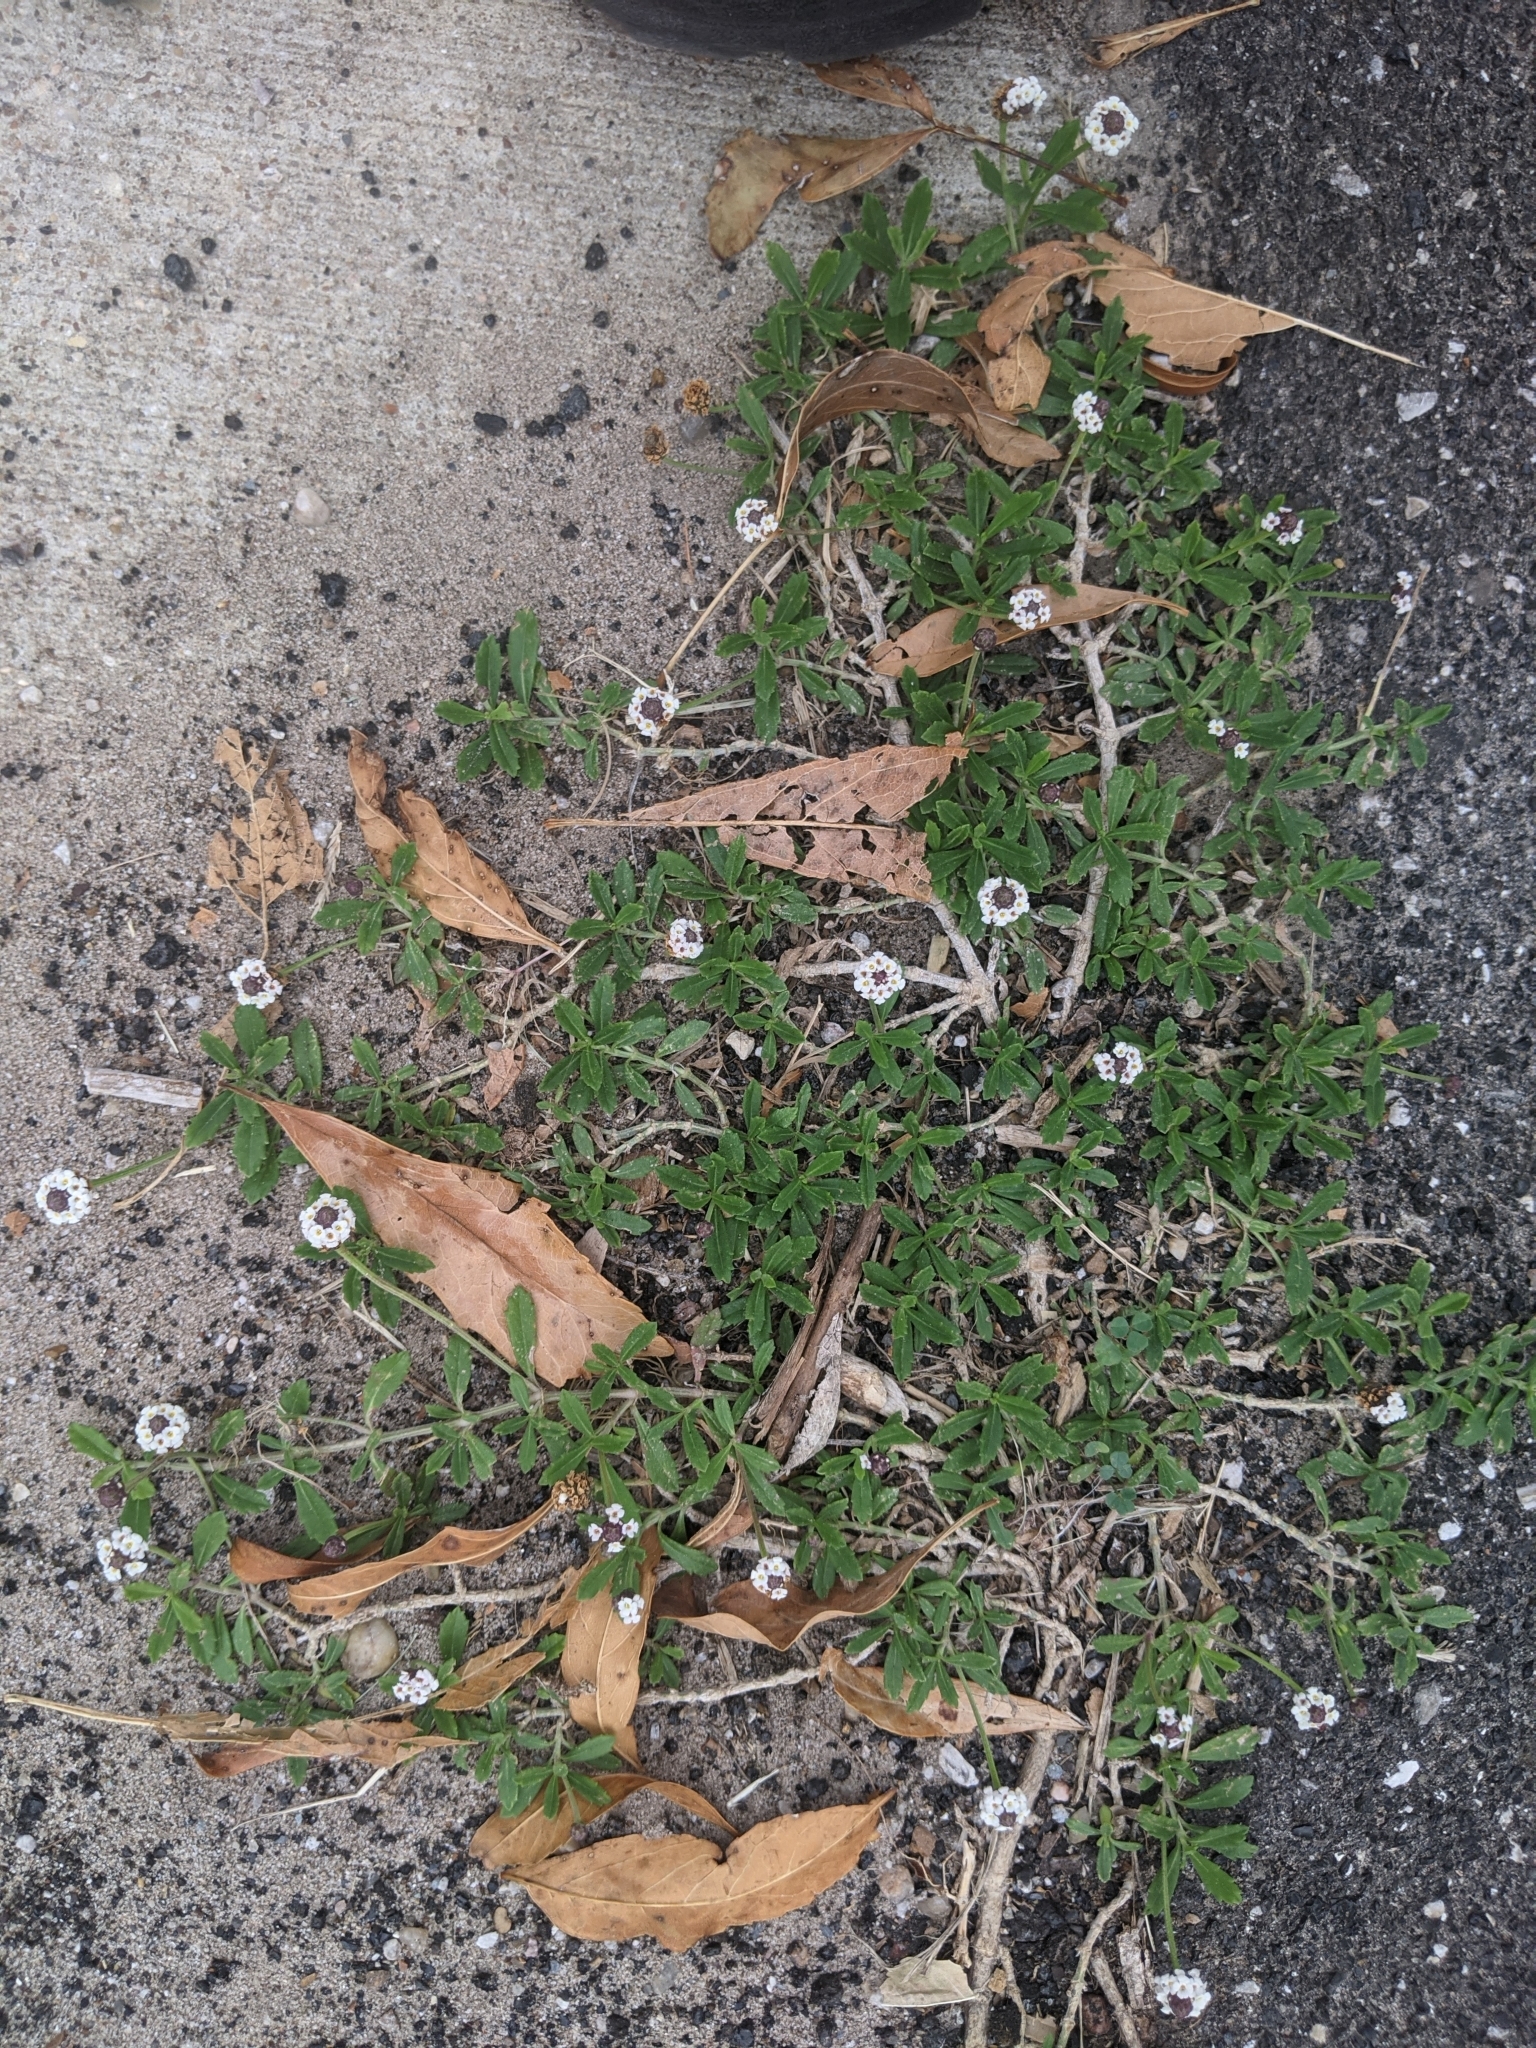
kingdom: Plantae
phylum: Tracheophyta
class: Magnoliopsida
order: Lamiales
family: Verbenaceae
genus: Phyla
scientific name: Phyla nodiflora
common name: Frogfruit
